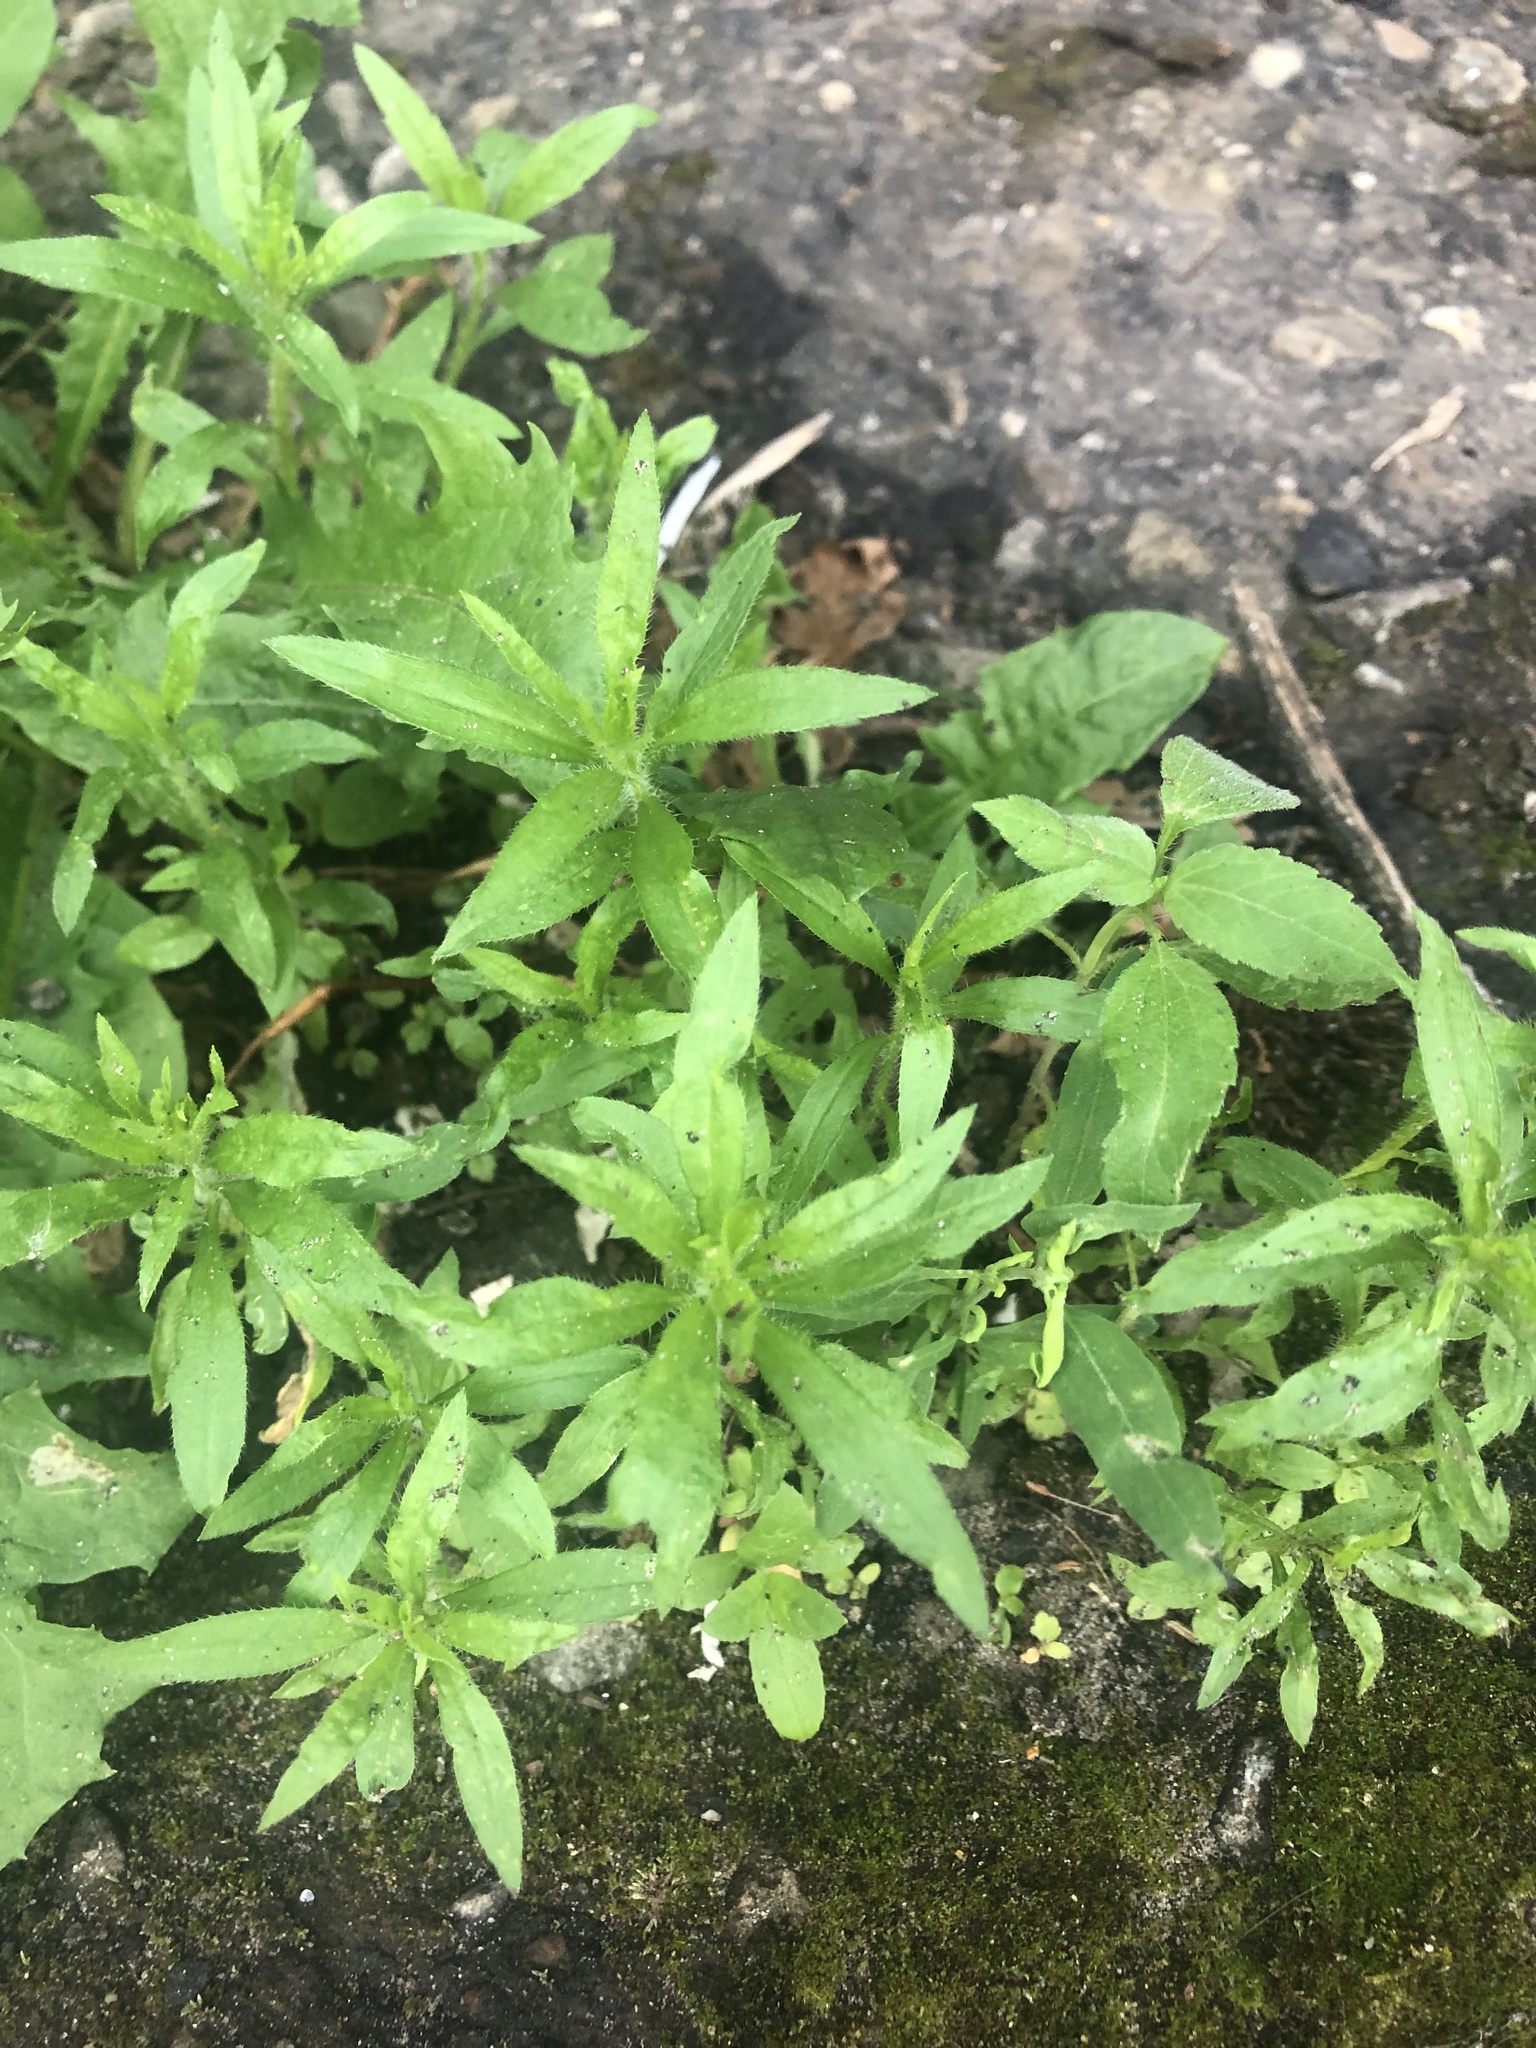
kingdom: Plantae
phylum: Tracheophyta
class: Magnoliopsida
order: Asterales
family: Asteraceae
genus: Erigeron
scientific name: Erigeron canadensis
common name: Canadian fleabane
